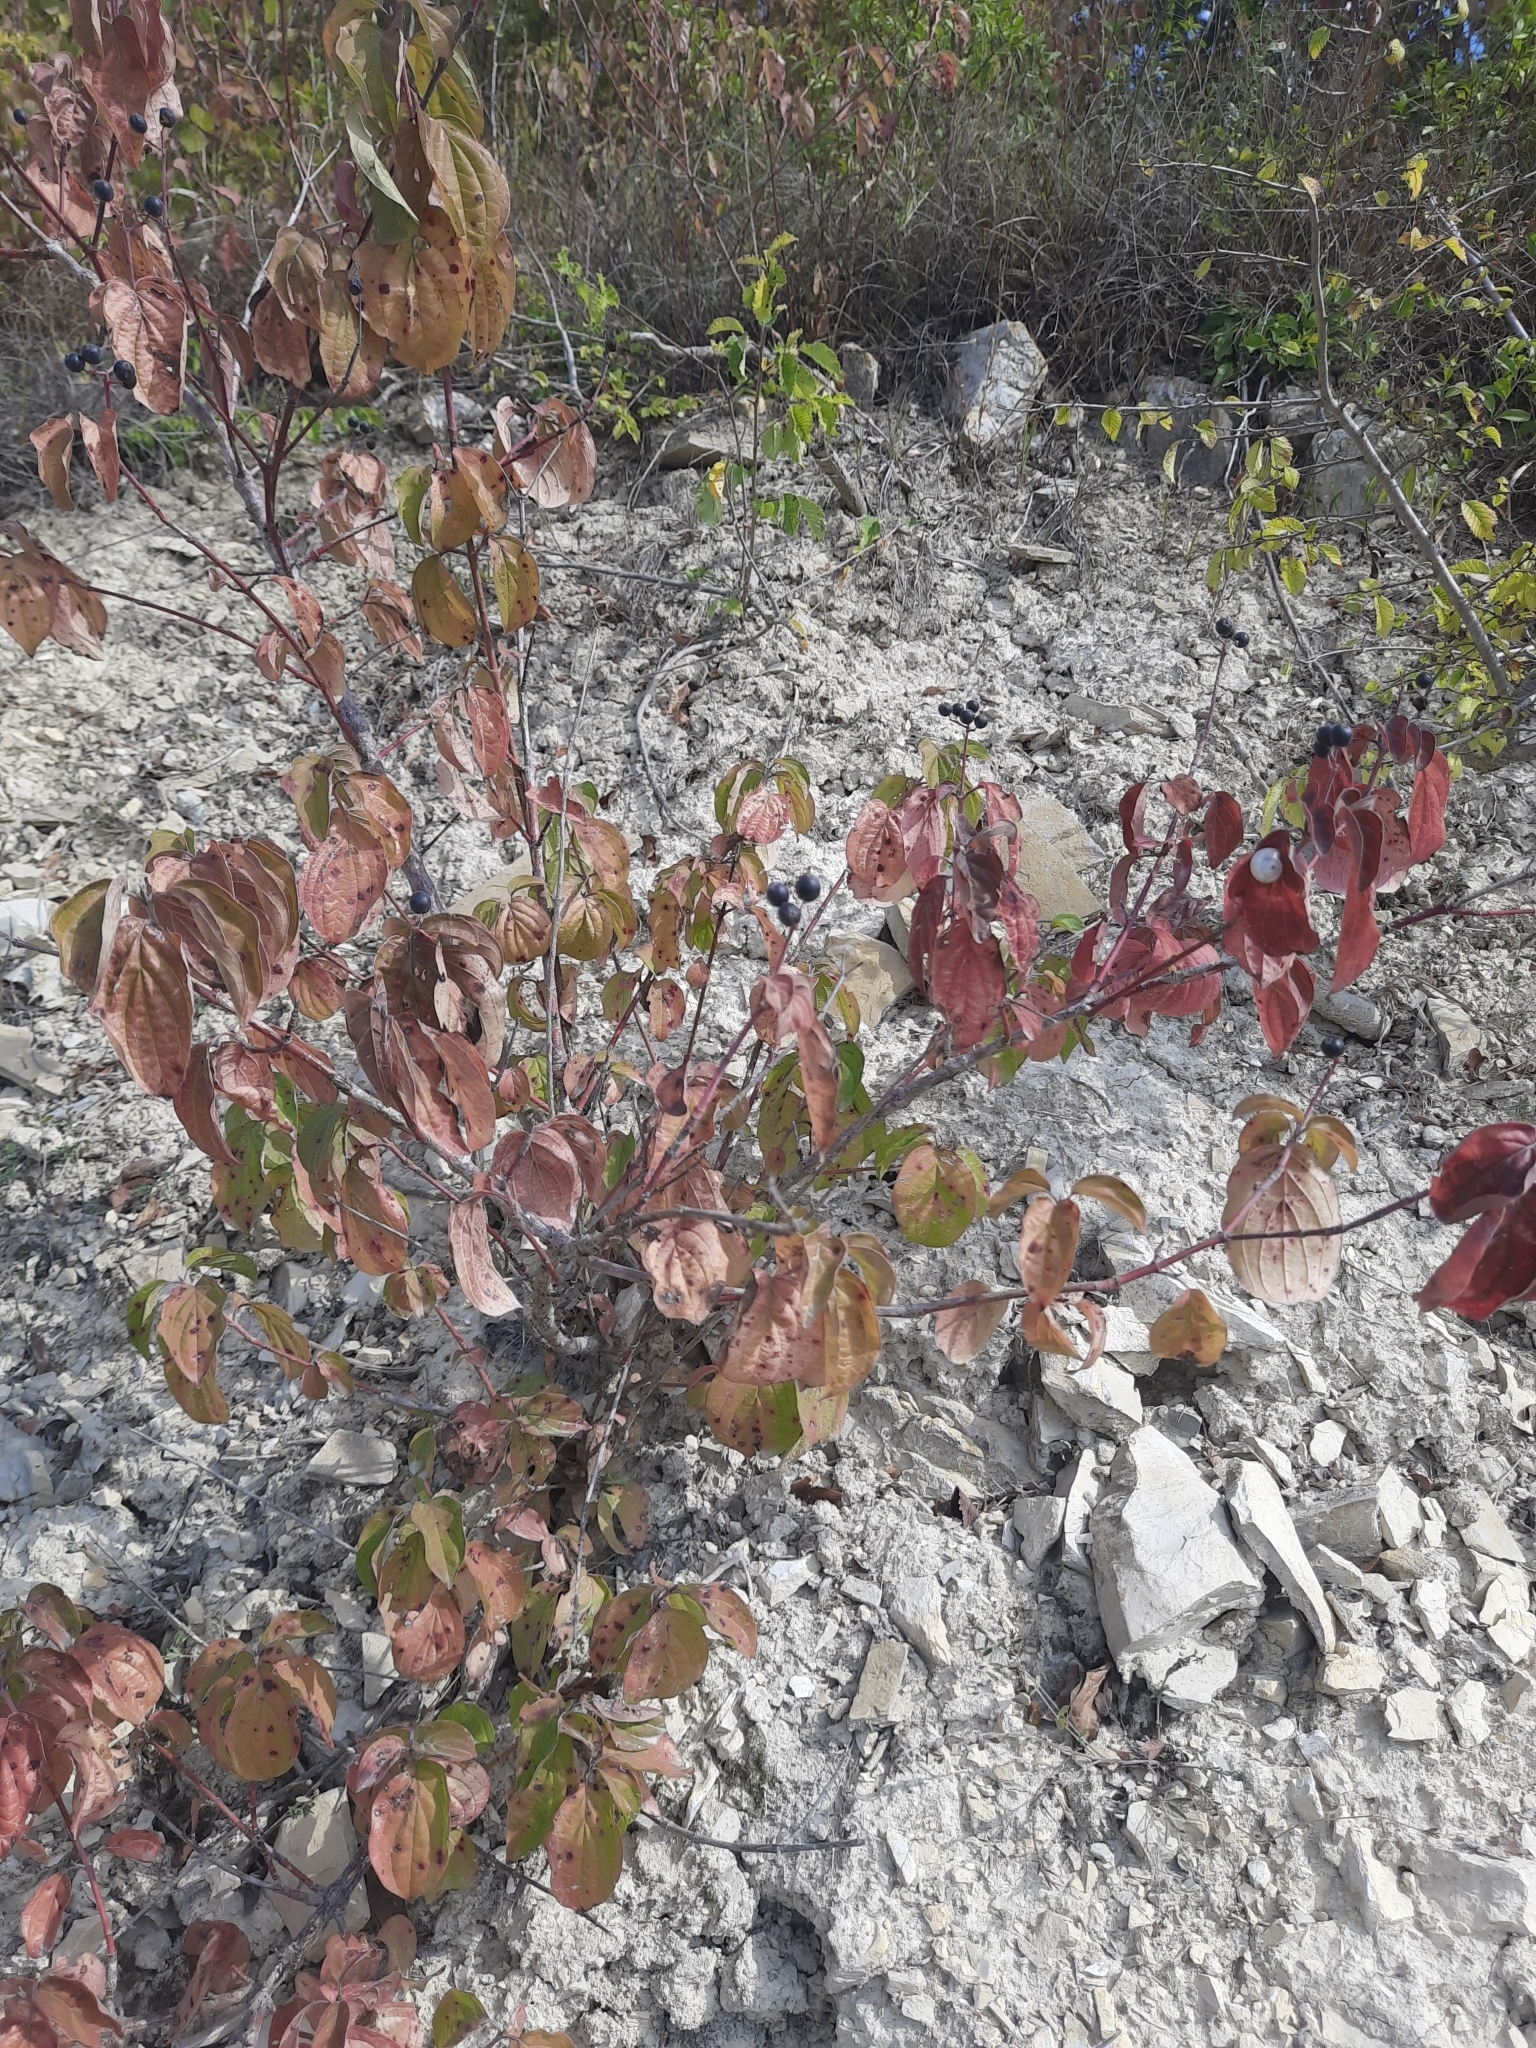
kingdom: Plantae
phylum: Tracheophyta
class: Magnoliopsida
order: Cornales
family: Cornaceae
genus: Cornus
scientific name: Cornus sanguinea
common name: Dogwood
